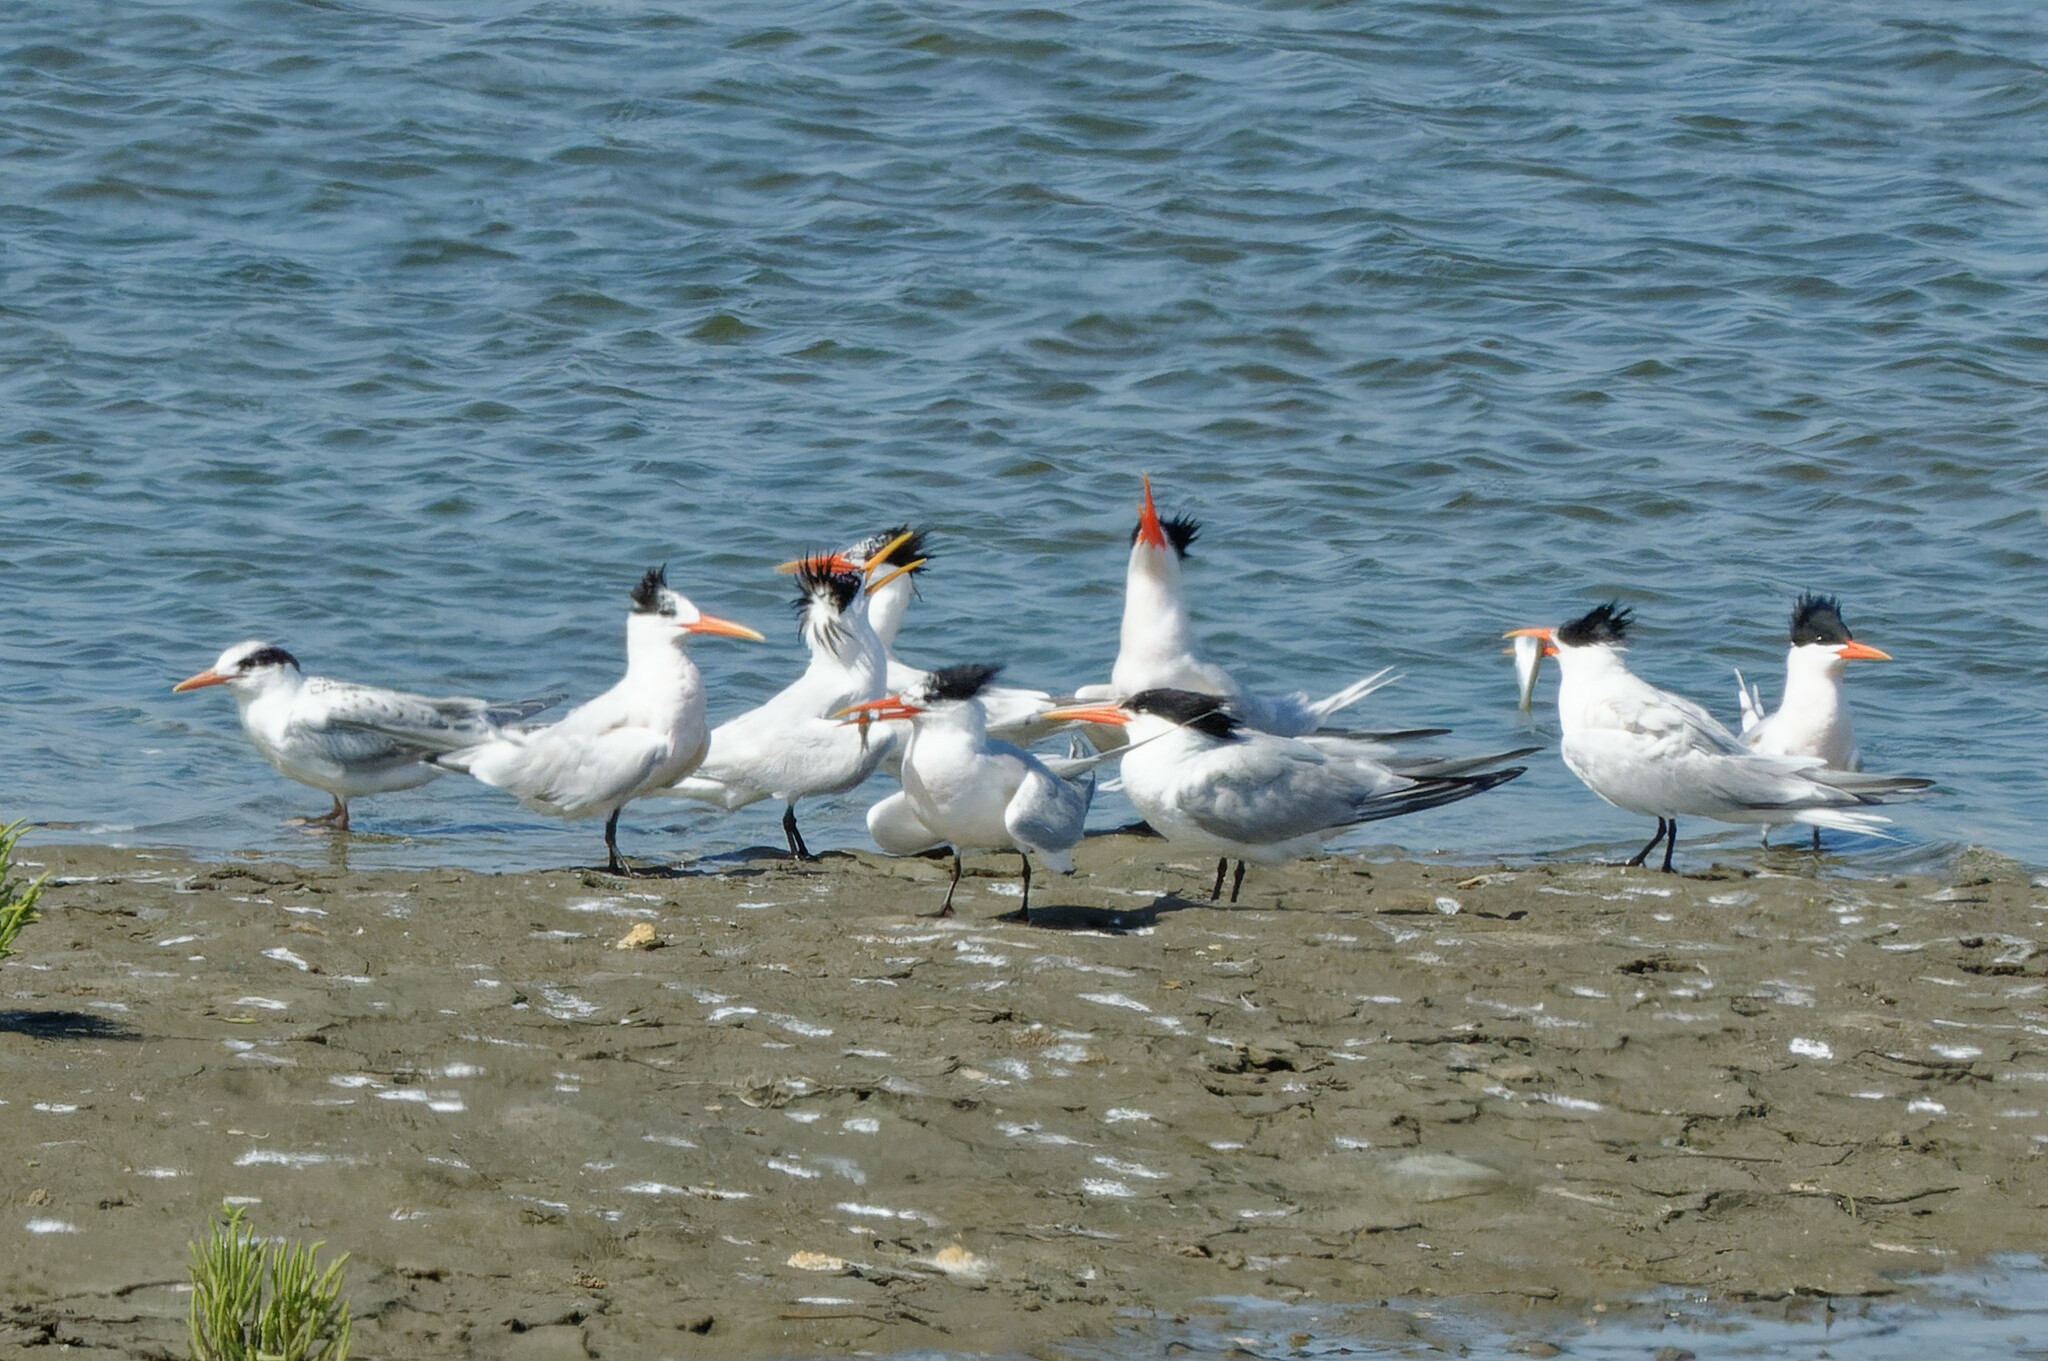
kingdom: Animalia
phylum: Chordata
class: Aves
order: Charadriiformes
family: Laridae
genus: Thalasseus
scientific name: Thalasseus elegans
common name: Elegant tern
